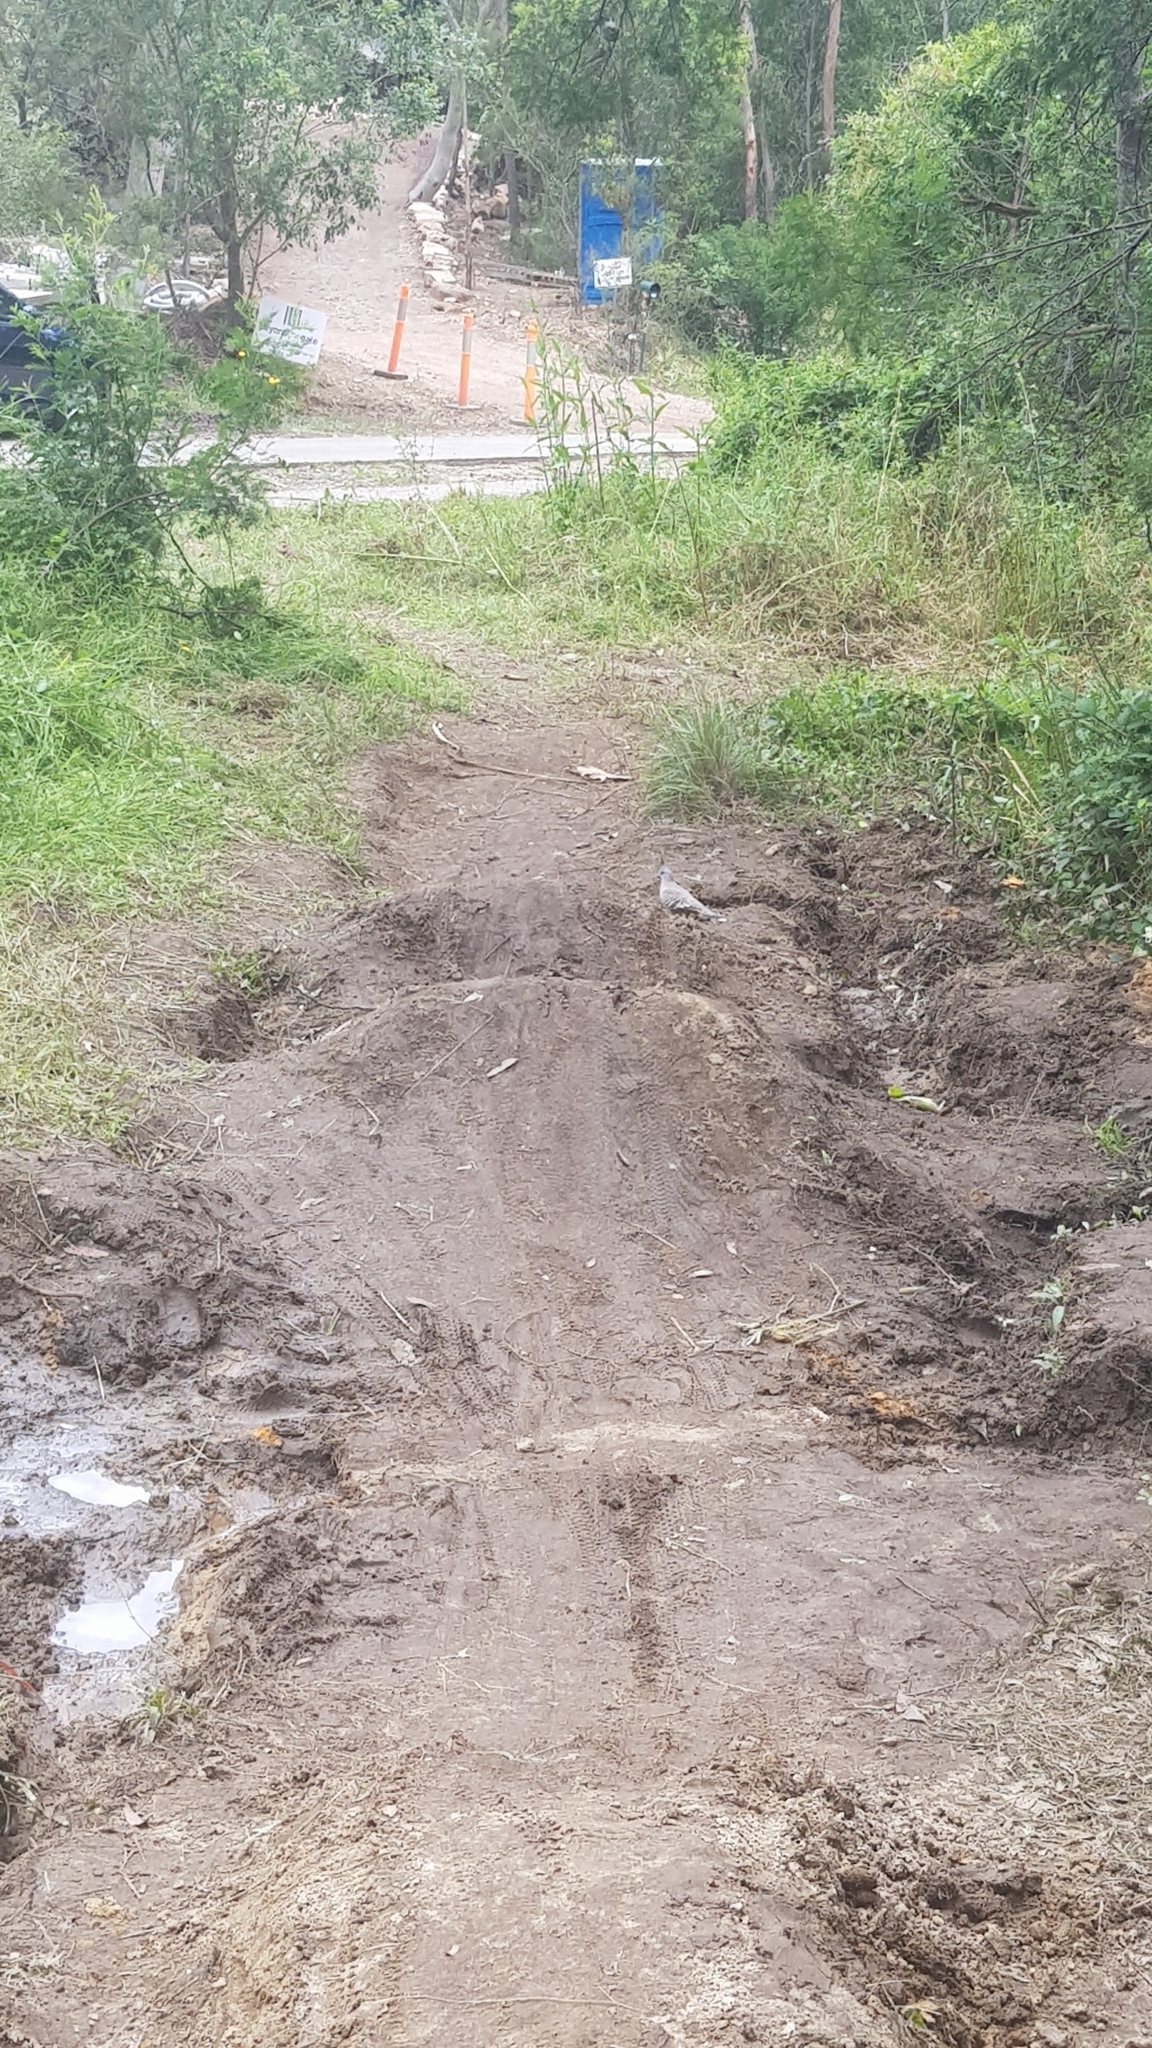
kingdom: Animalia
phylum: Chordata
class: Aves
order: Columbiformes
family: Columbidae
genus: Ocyphaps
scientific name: Ocyphaps lophotes
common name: Crested pigeon
